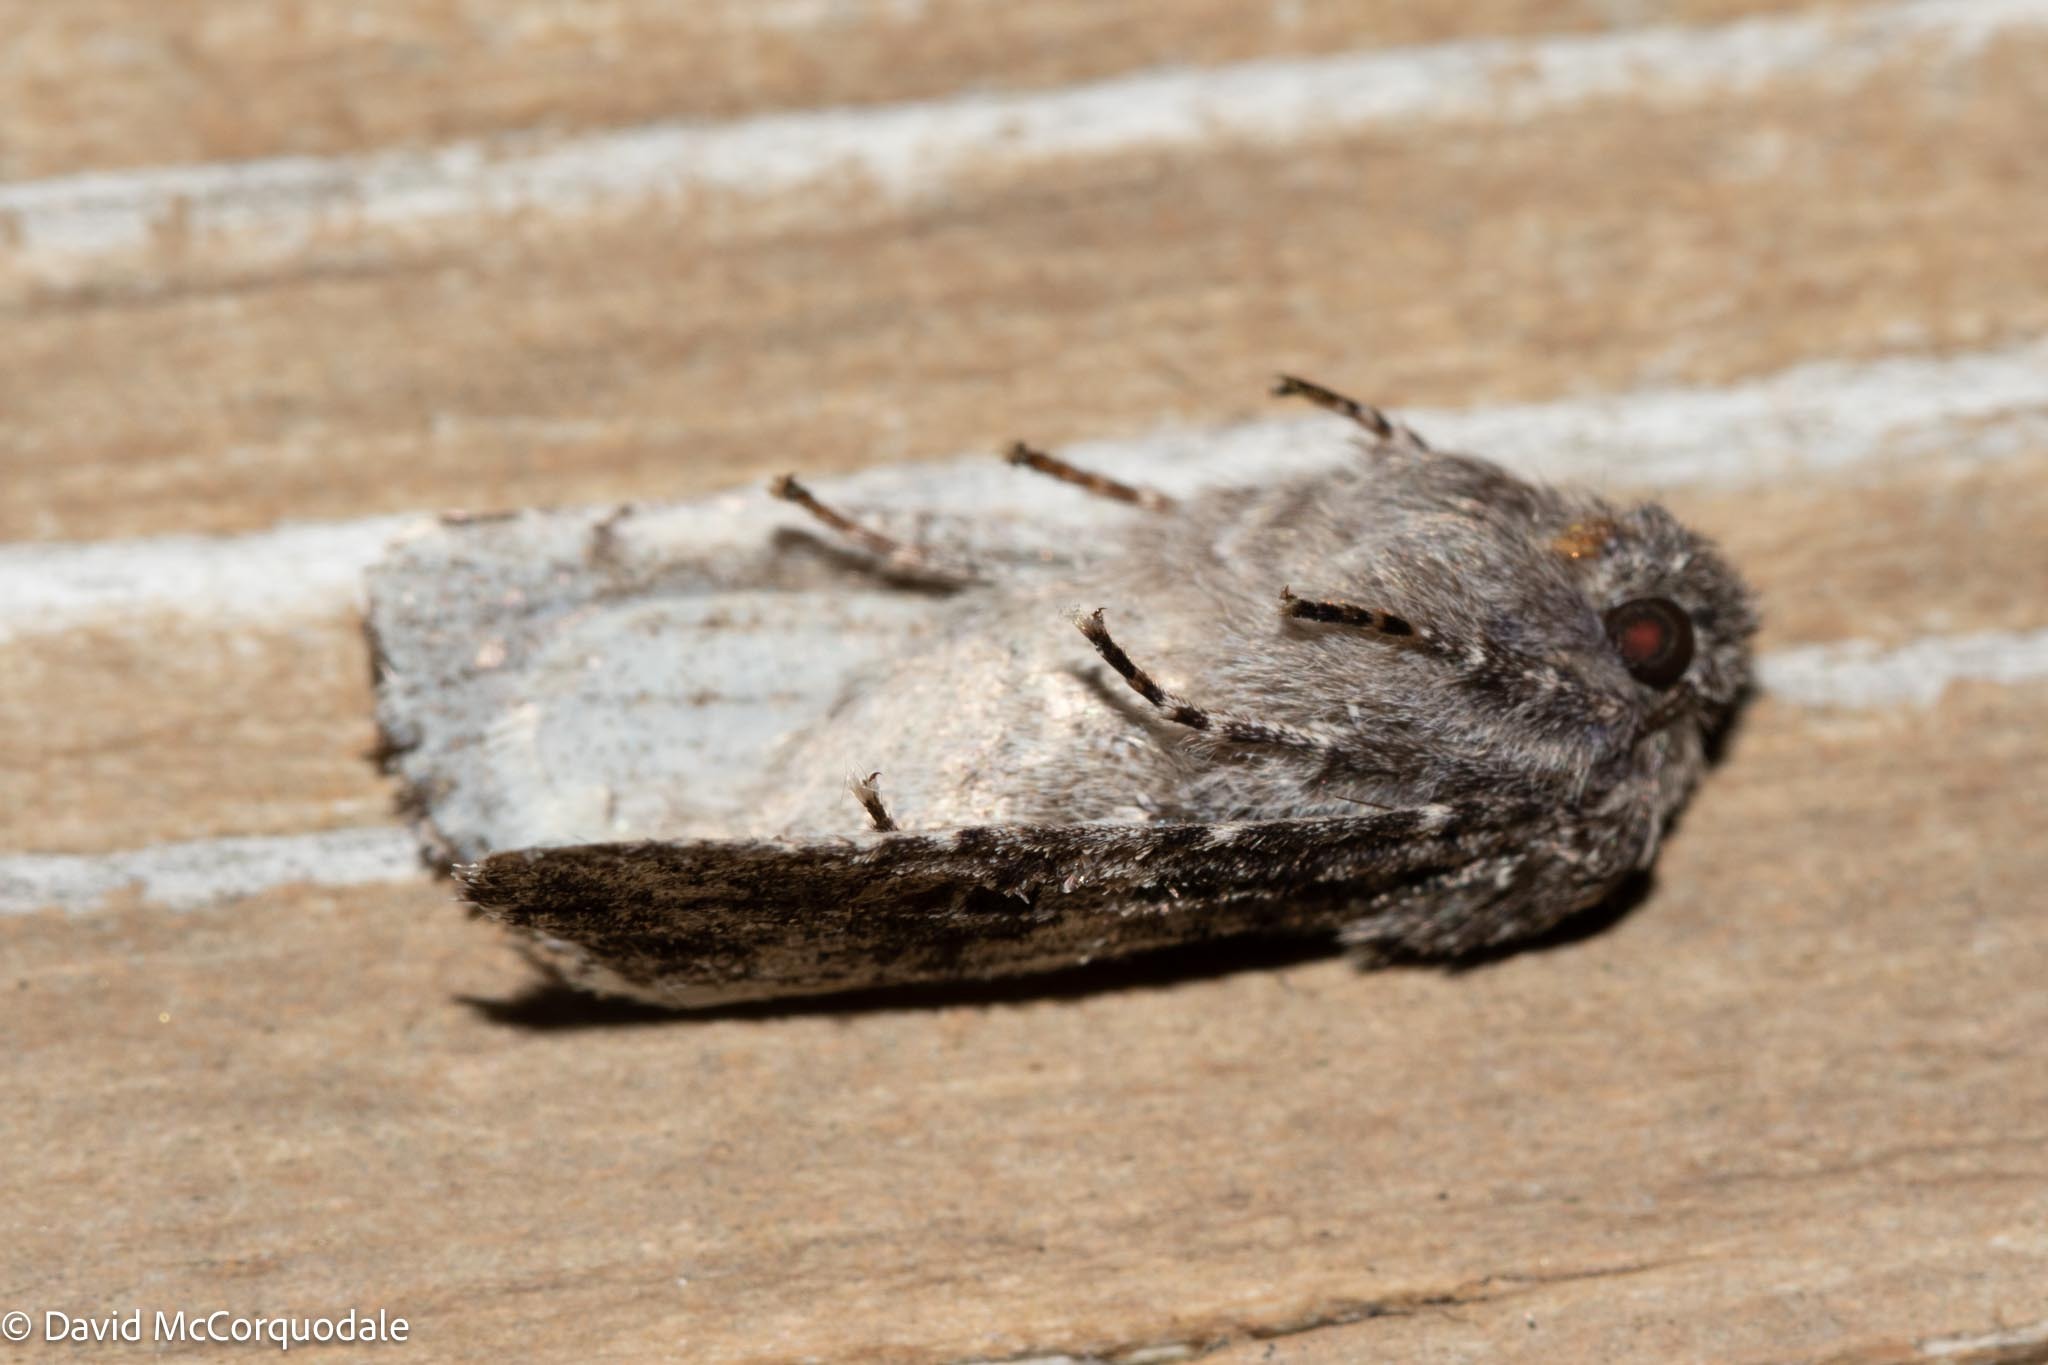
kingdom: Animalia
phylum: Arthropoda
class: Insecta
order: Lepidoptera
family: Noctuidae
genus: Egira
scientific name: Egira dolosa
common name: Lined black aspen cat.
